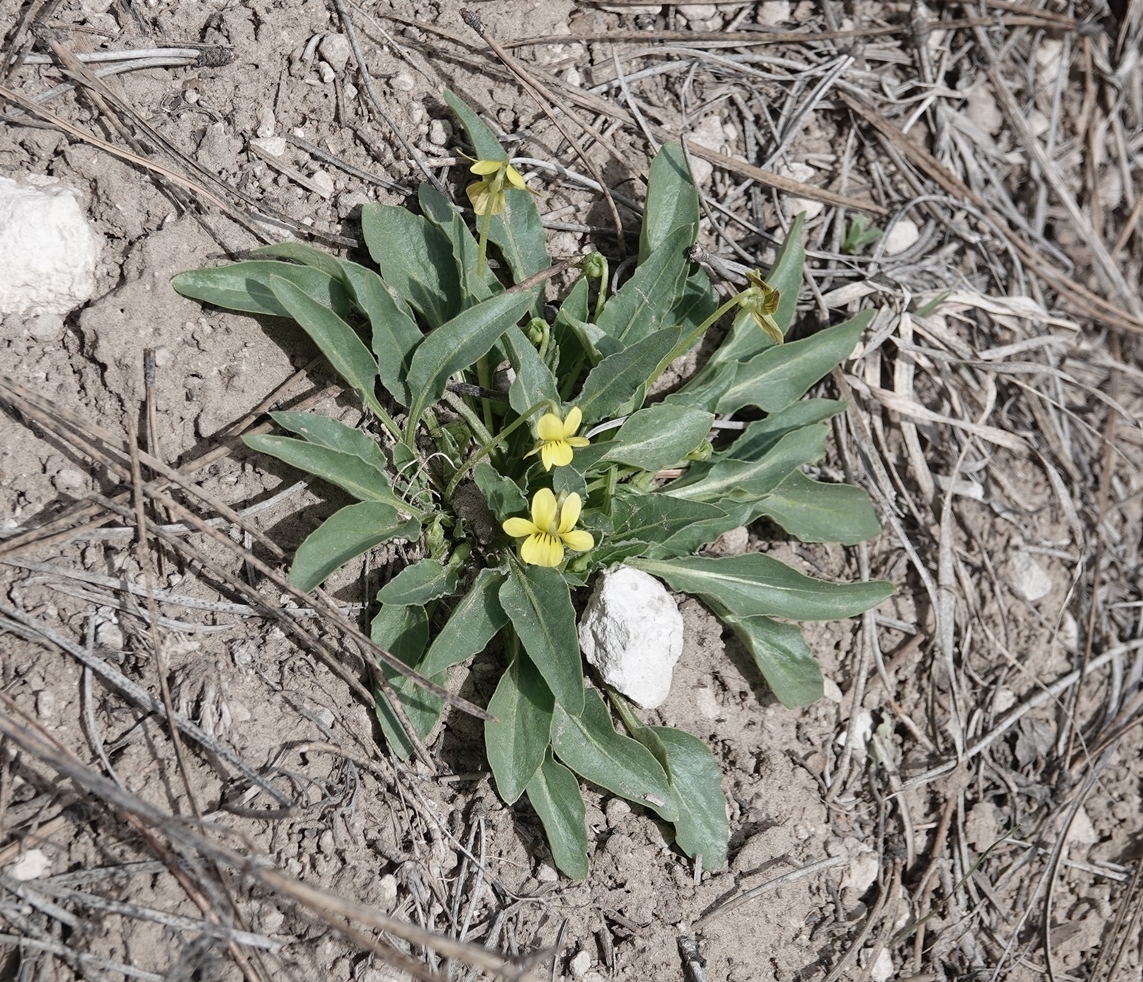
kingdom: Plantae
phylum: Tracheophyta
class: Magnoliopsida
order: Malpighiales
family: Violaceae
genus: Viola
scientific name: Viola nuttallii
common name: Yellow prairie violet
